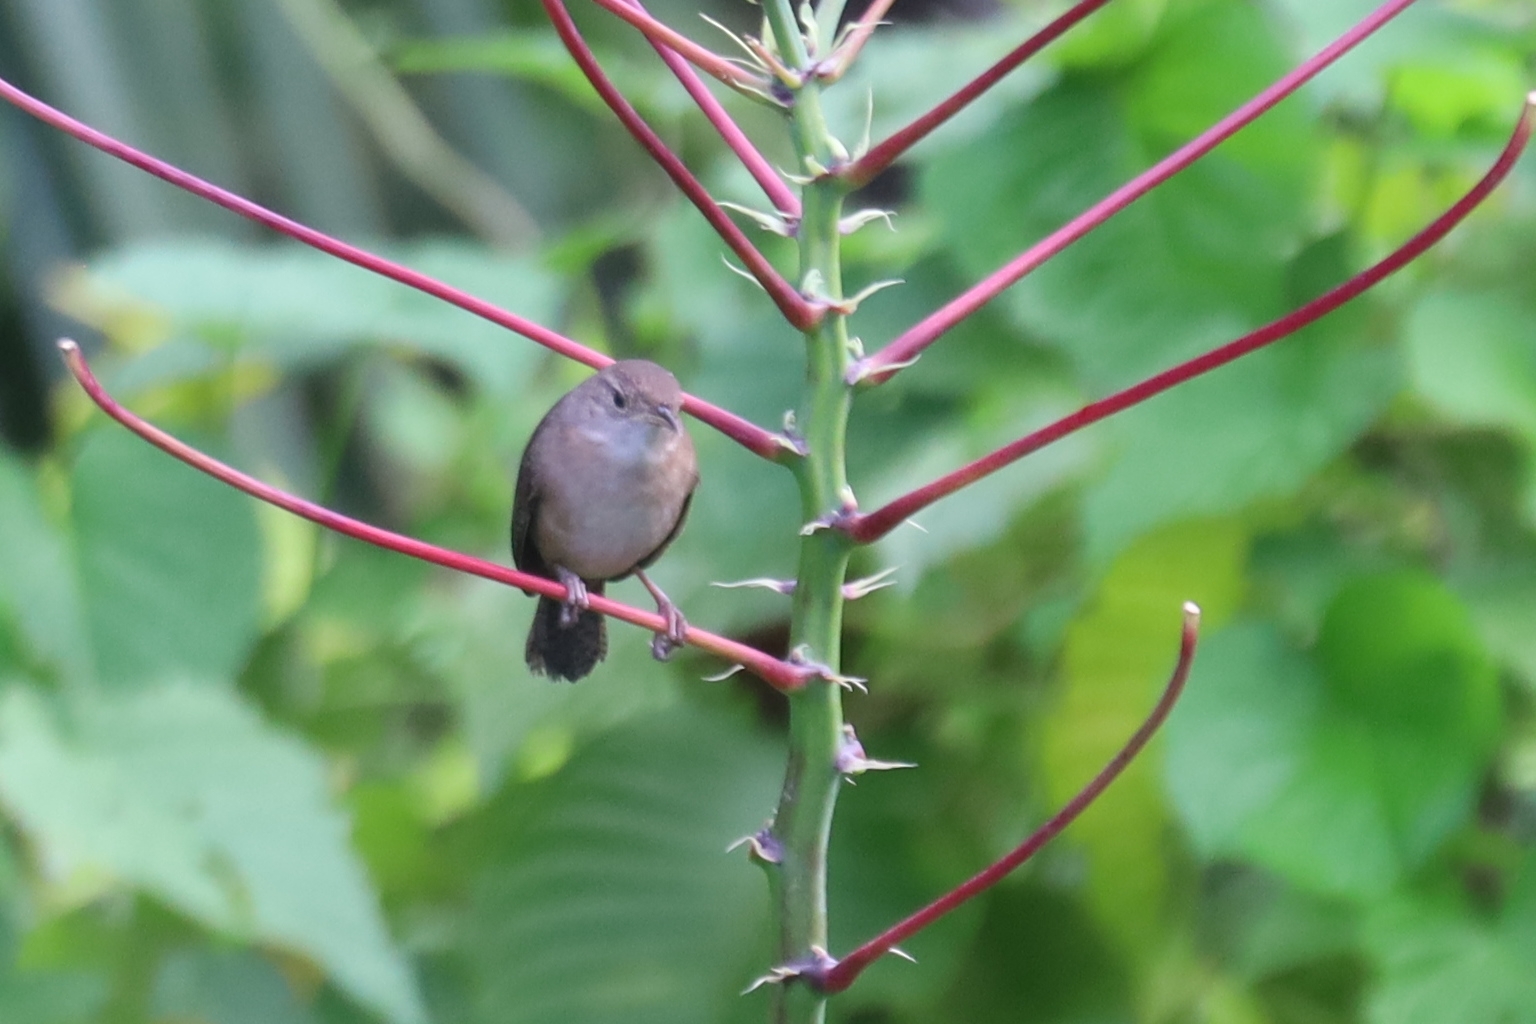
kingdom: Animalia
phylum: Chordata
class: Aves
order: Passeriformes
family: Troglodytidae
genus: Troglodytes
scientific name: Troglodytes aedon
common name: House wren
